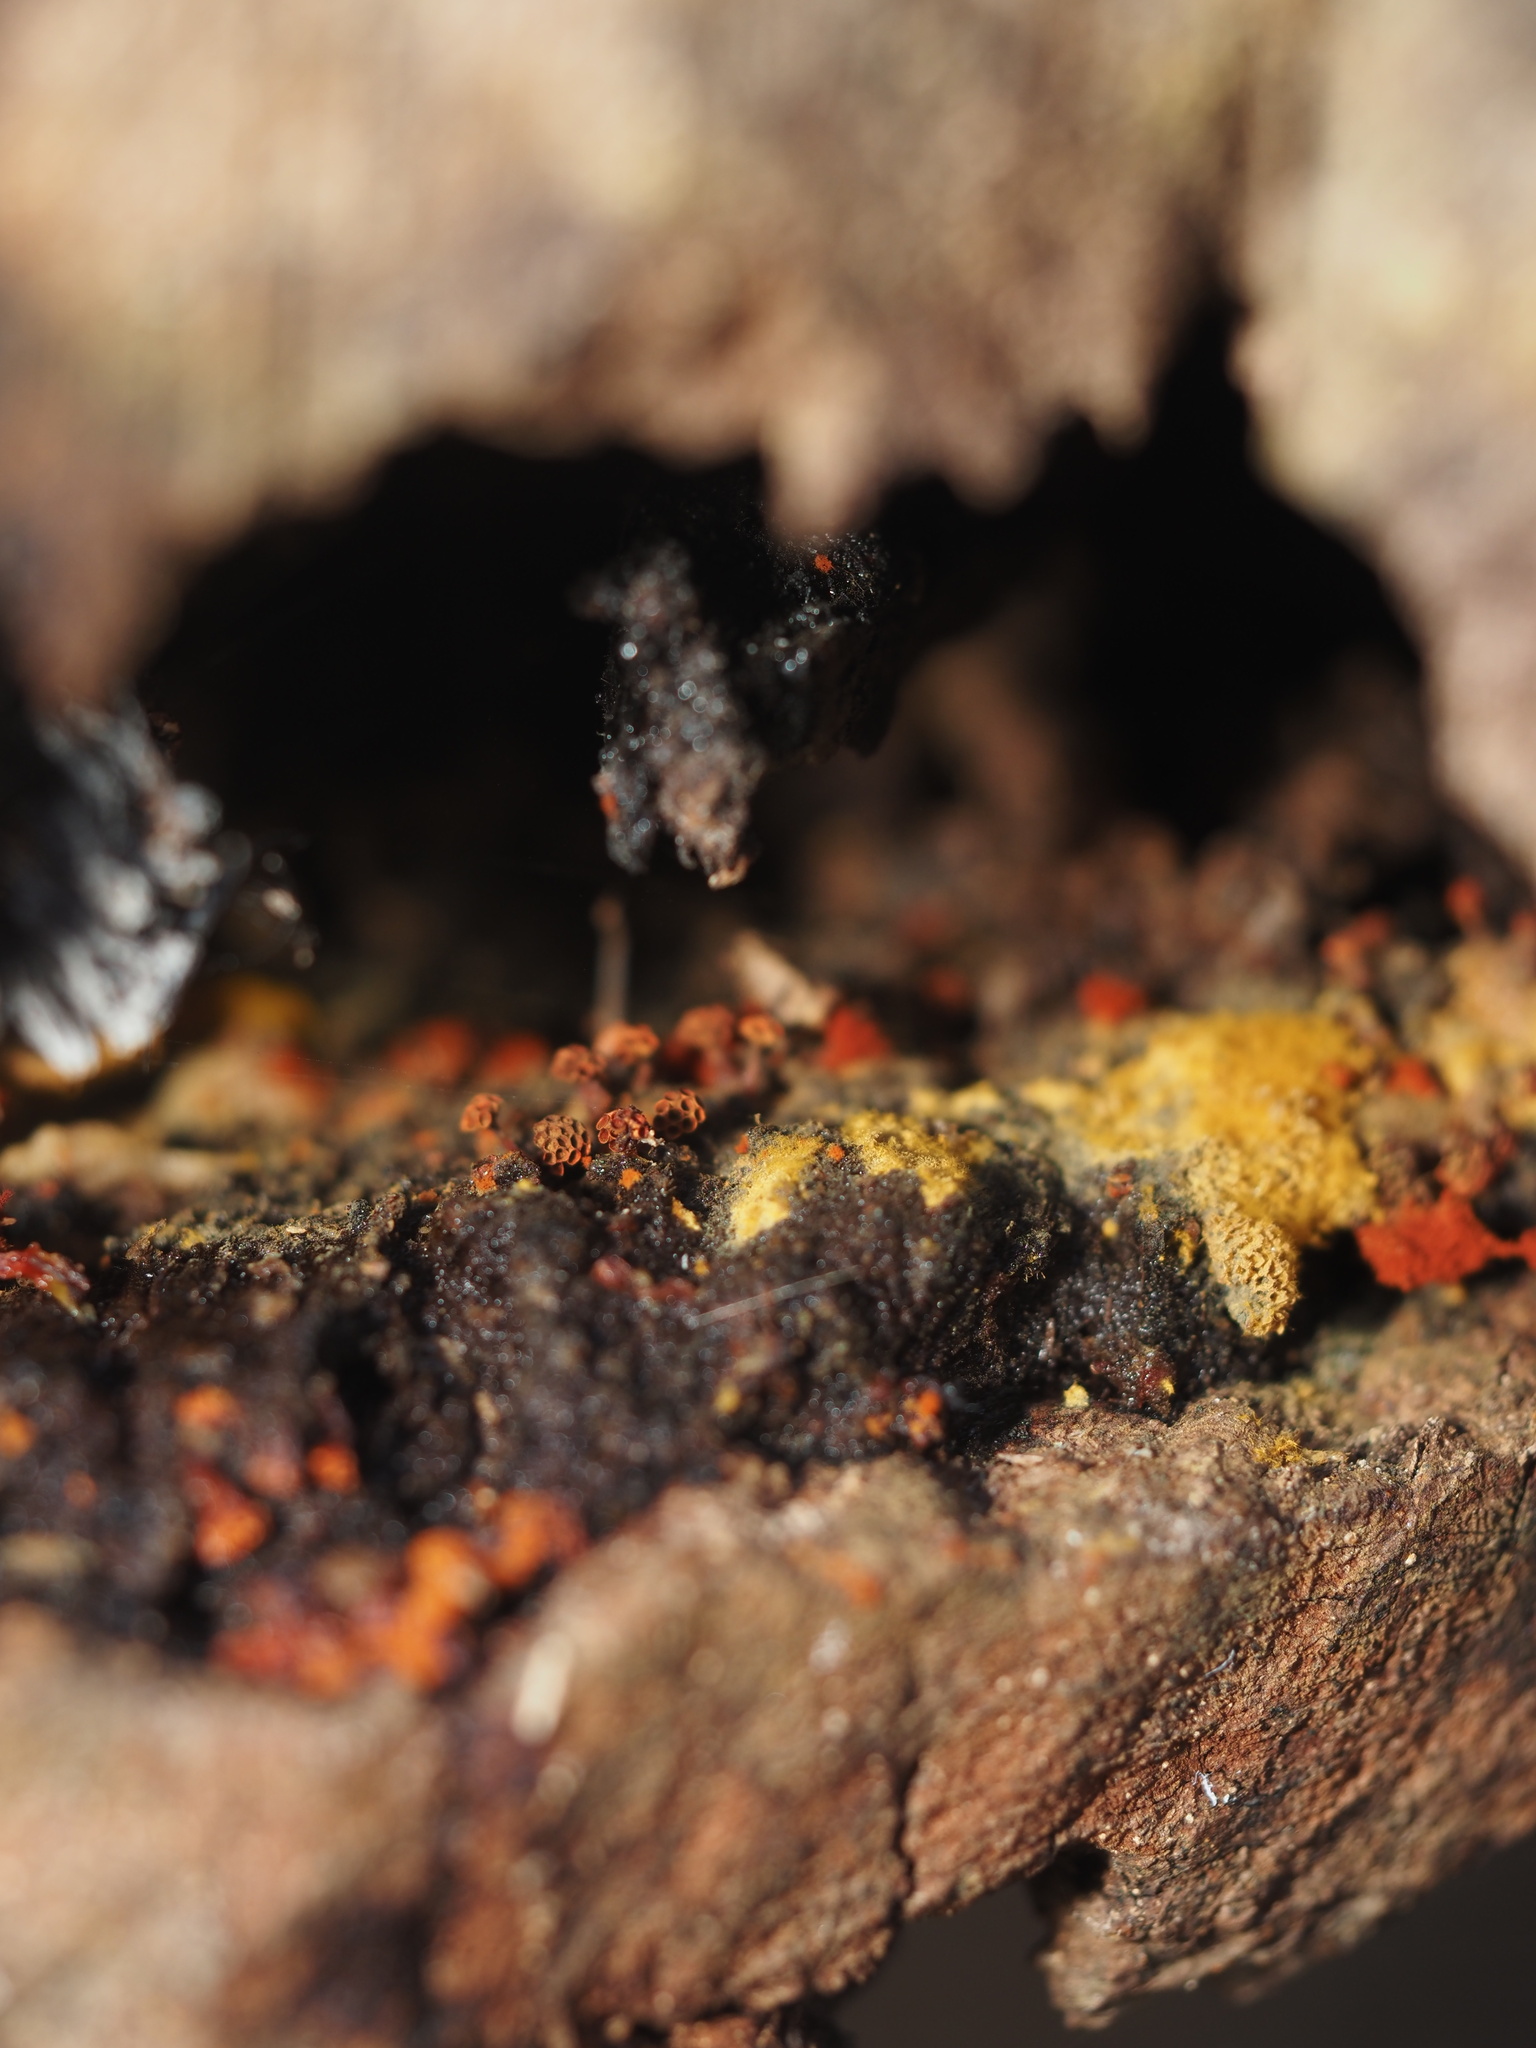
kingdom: Protozoa
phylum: Mycetozoa
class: Myxomycetes
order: Trichiales
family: Trichiaceae
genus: Metatrichia
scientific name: Metatrichia vesparia
